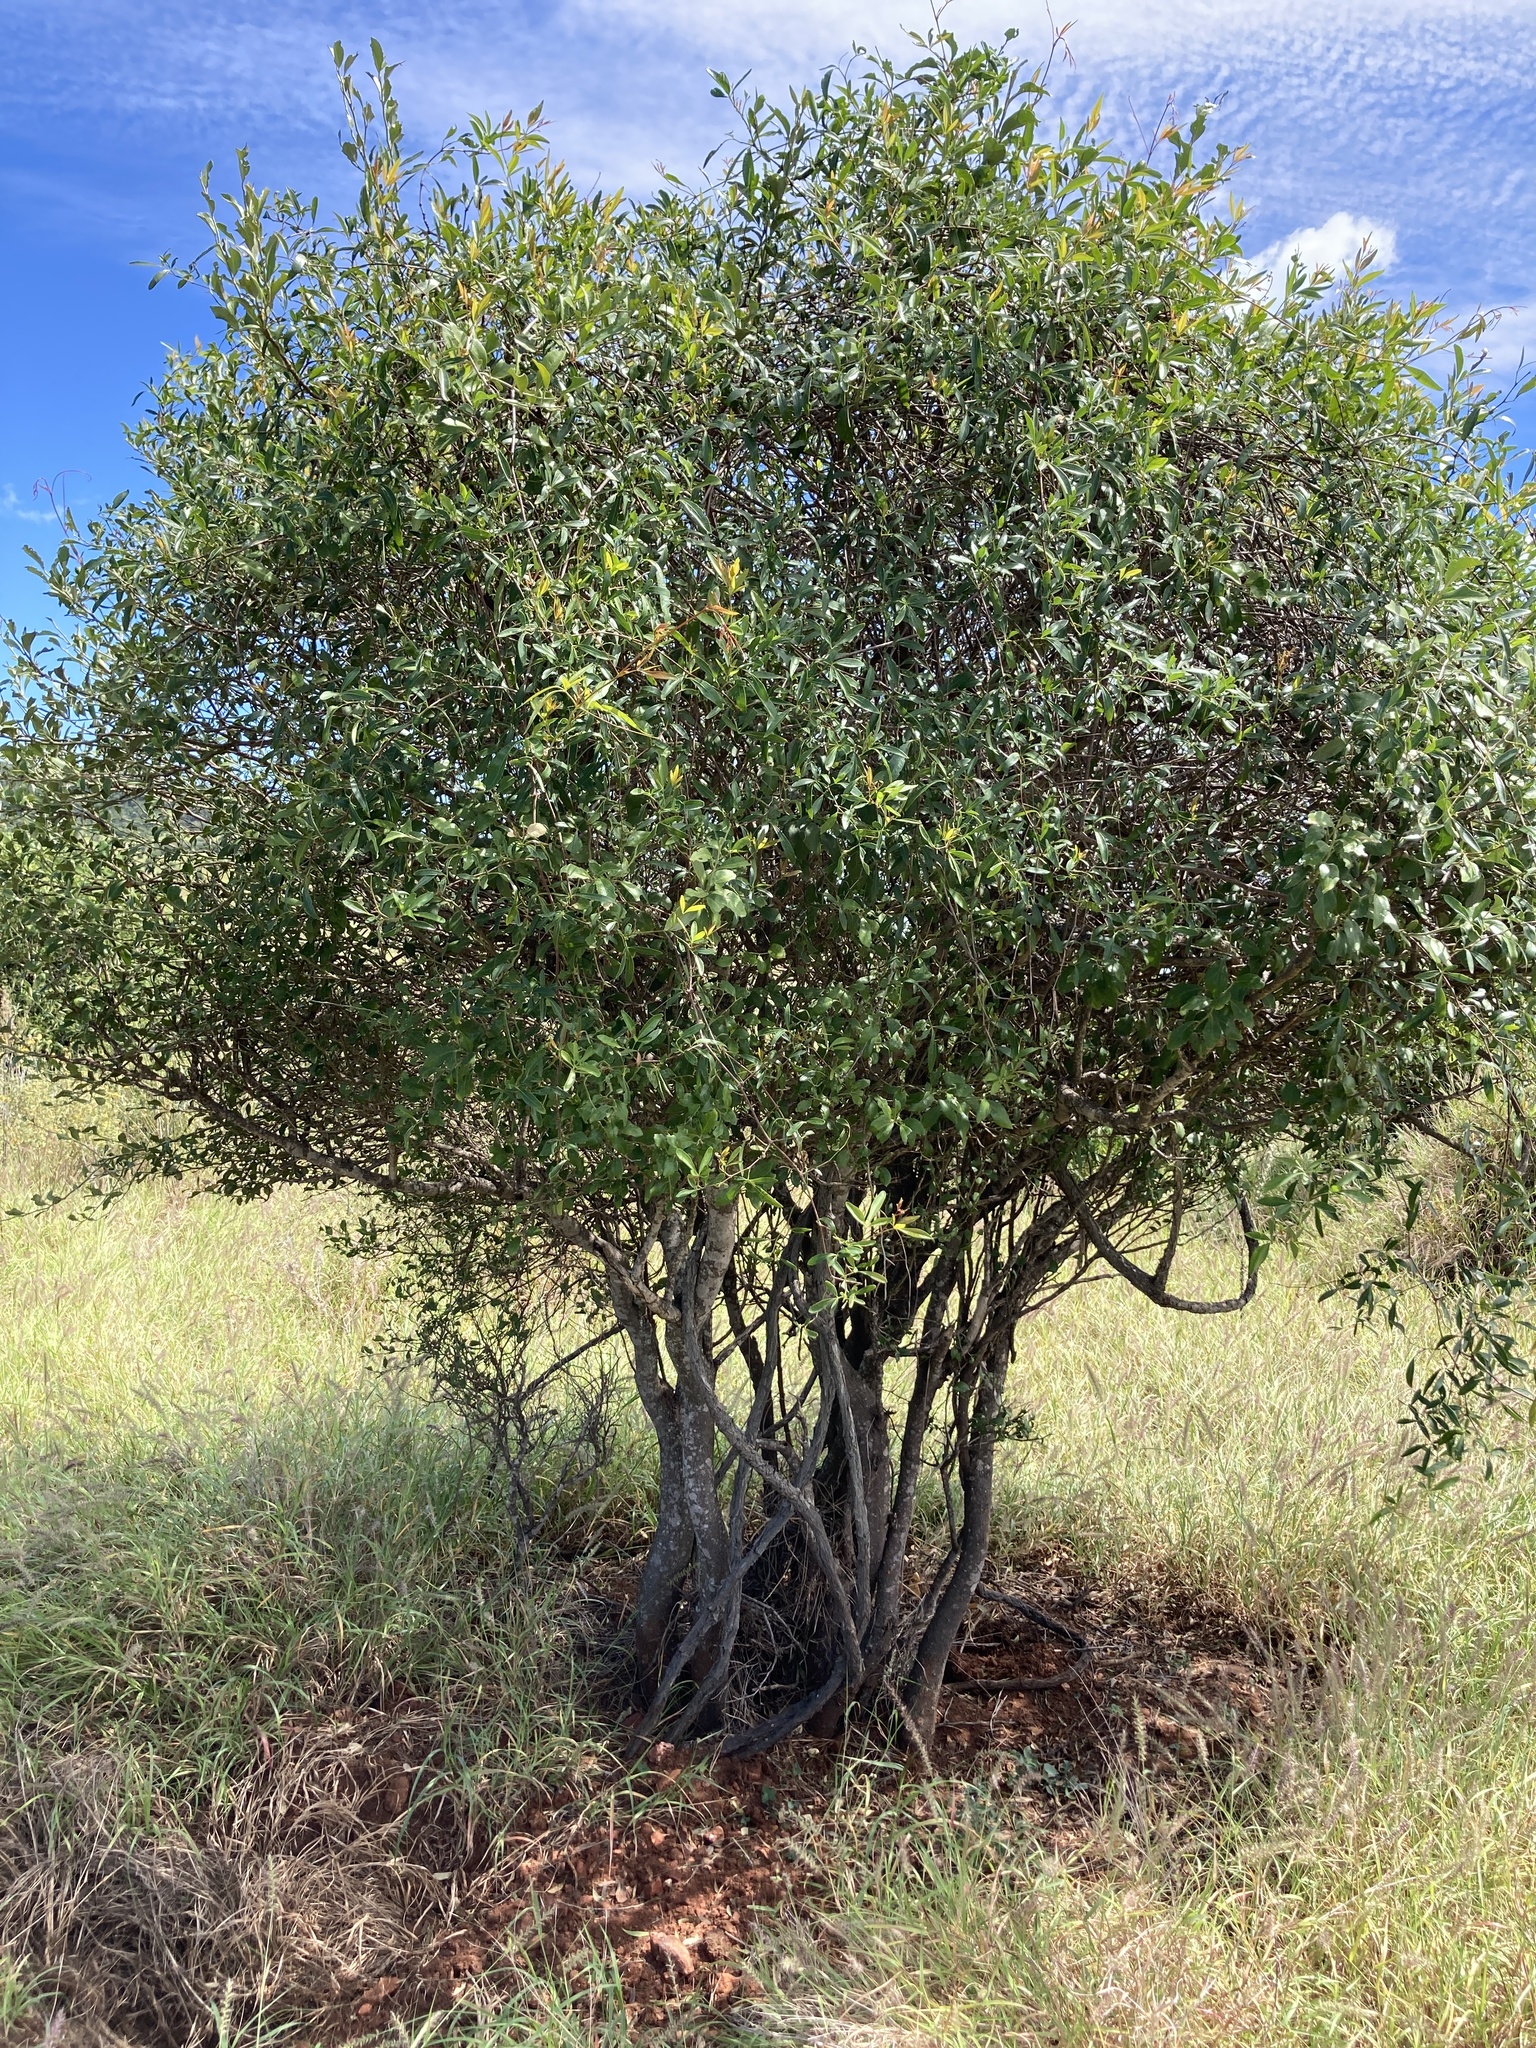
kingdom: Plantae
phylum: Tracheophyta
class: Magnoliopsida
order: Brassicales
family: Capparaceae
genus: Capparis
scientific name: Capparis loranthifolia
